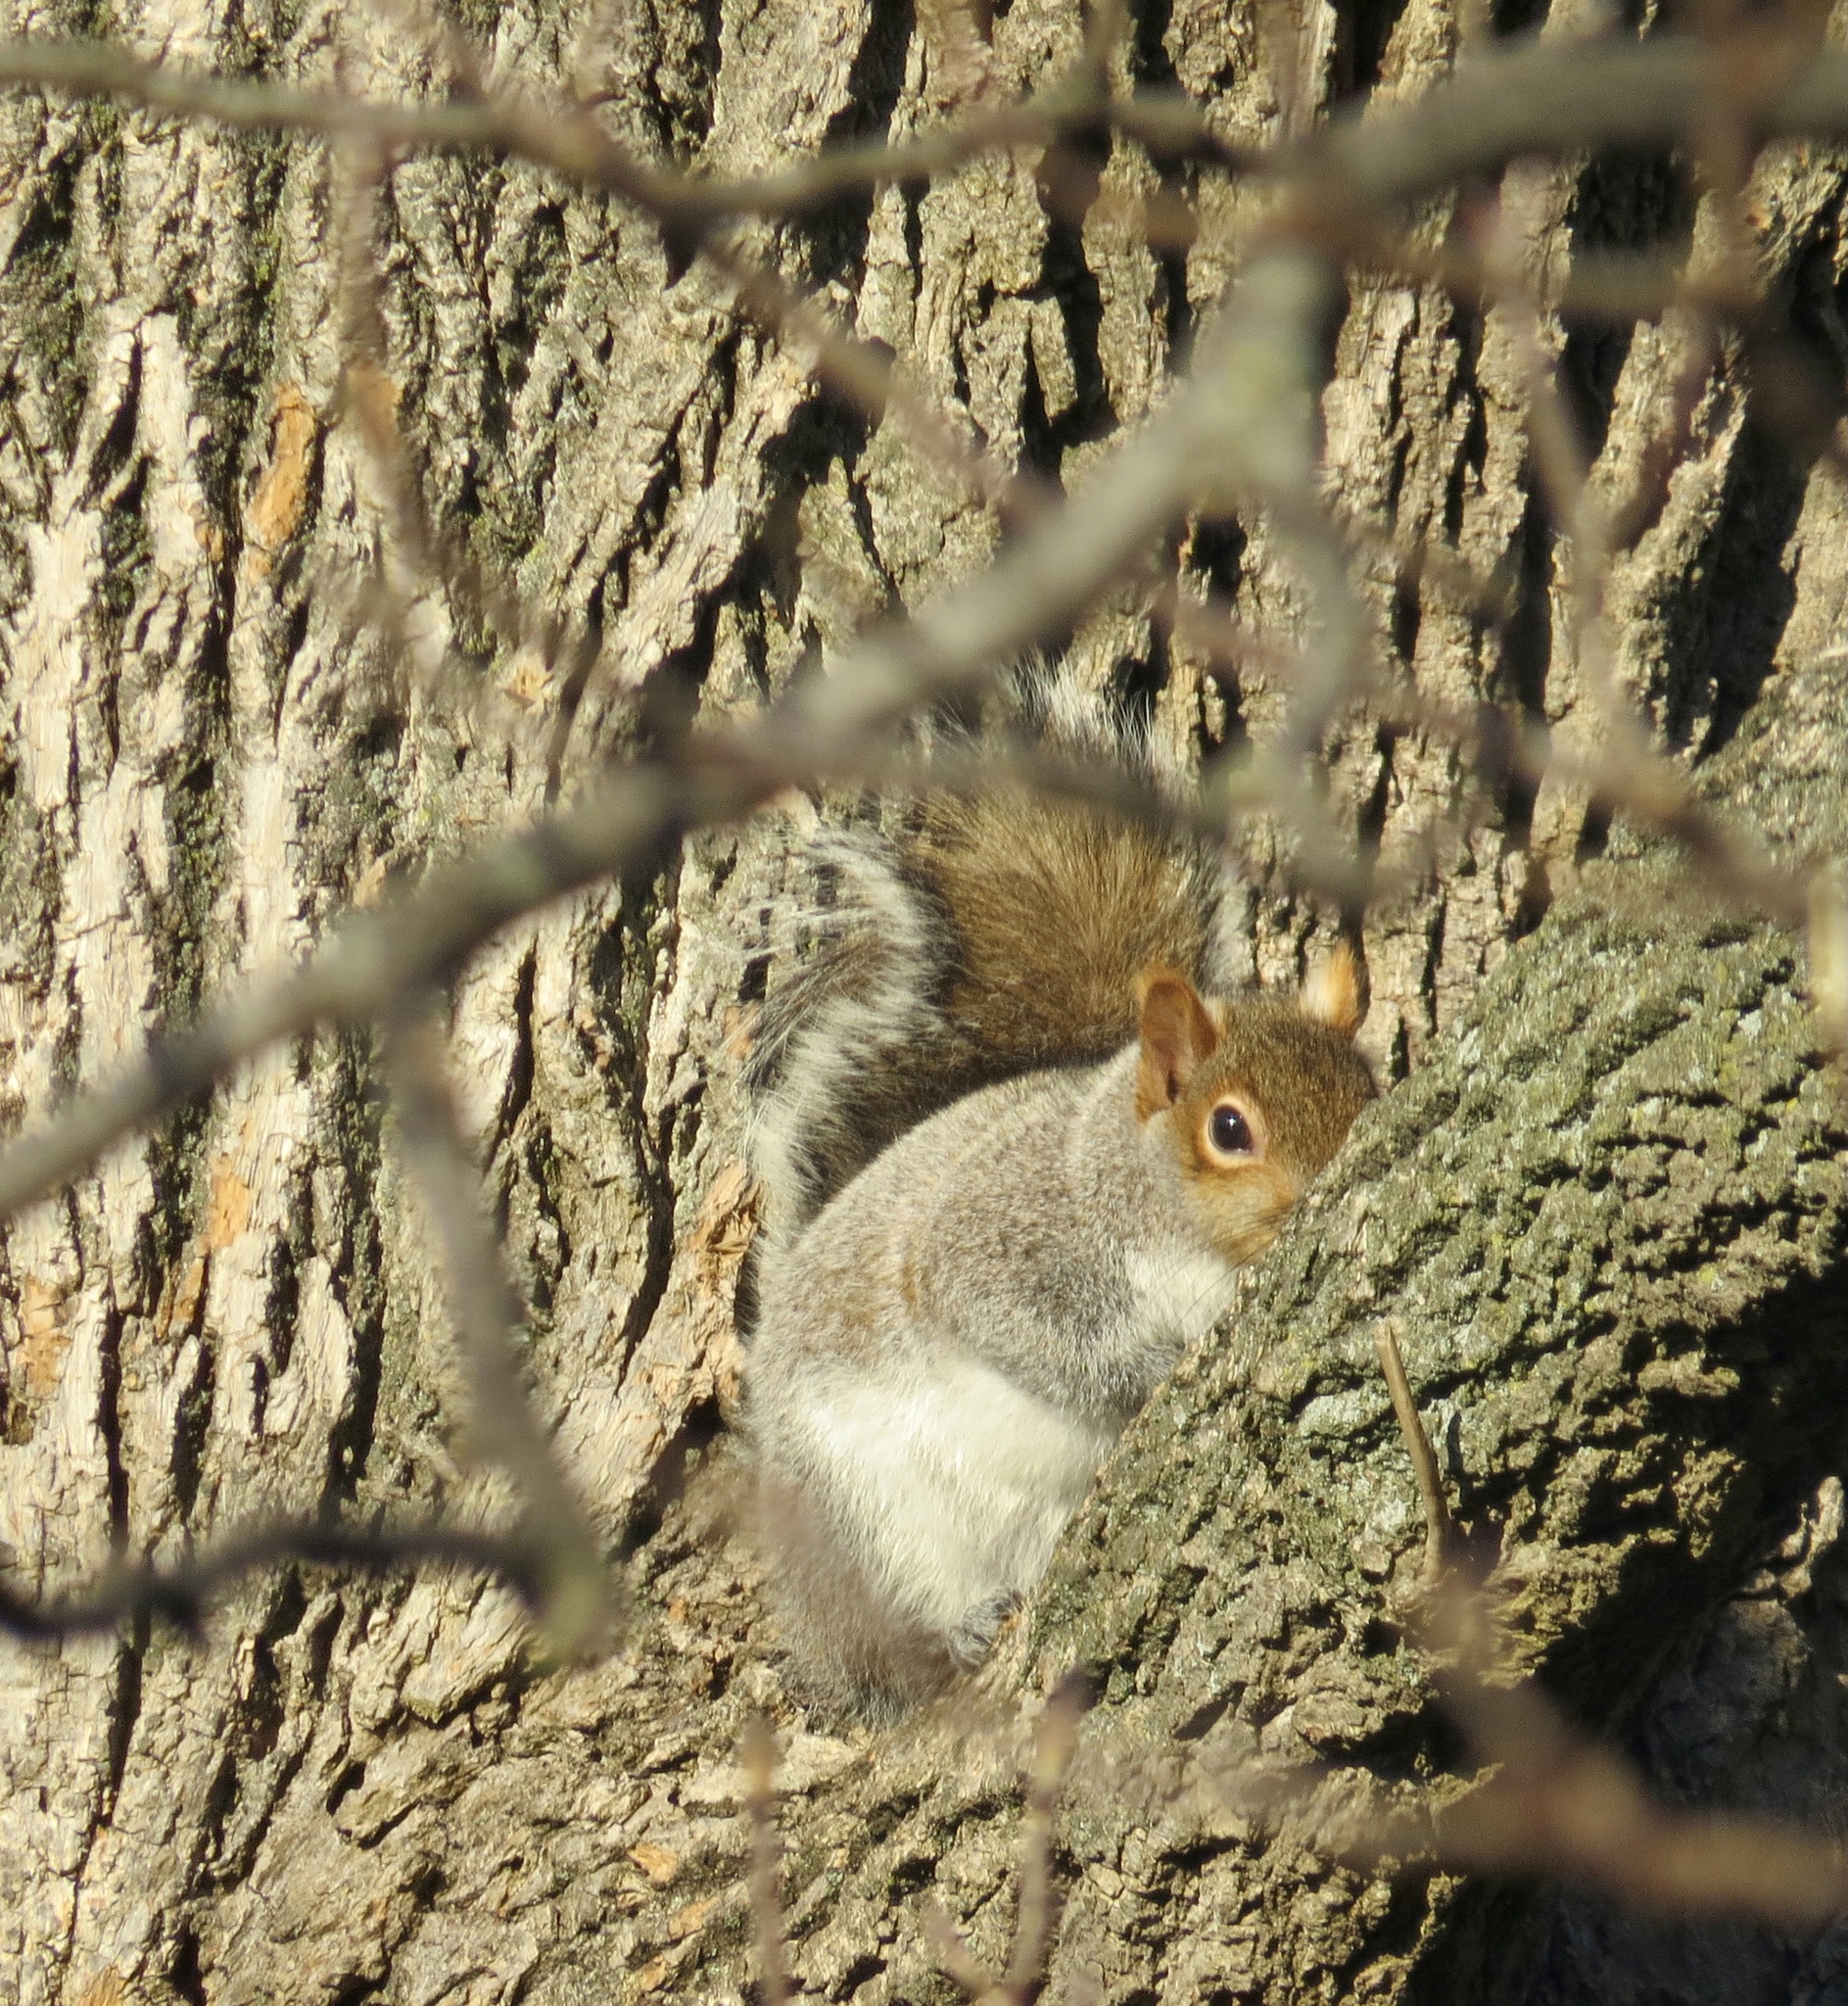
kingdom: Animalia
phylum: Chordata
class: Mammalia
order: Rodentia
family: Sciuridae
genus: Sciurus
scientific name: Sciurus carolinensis
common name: Eastern gray squirrel
